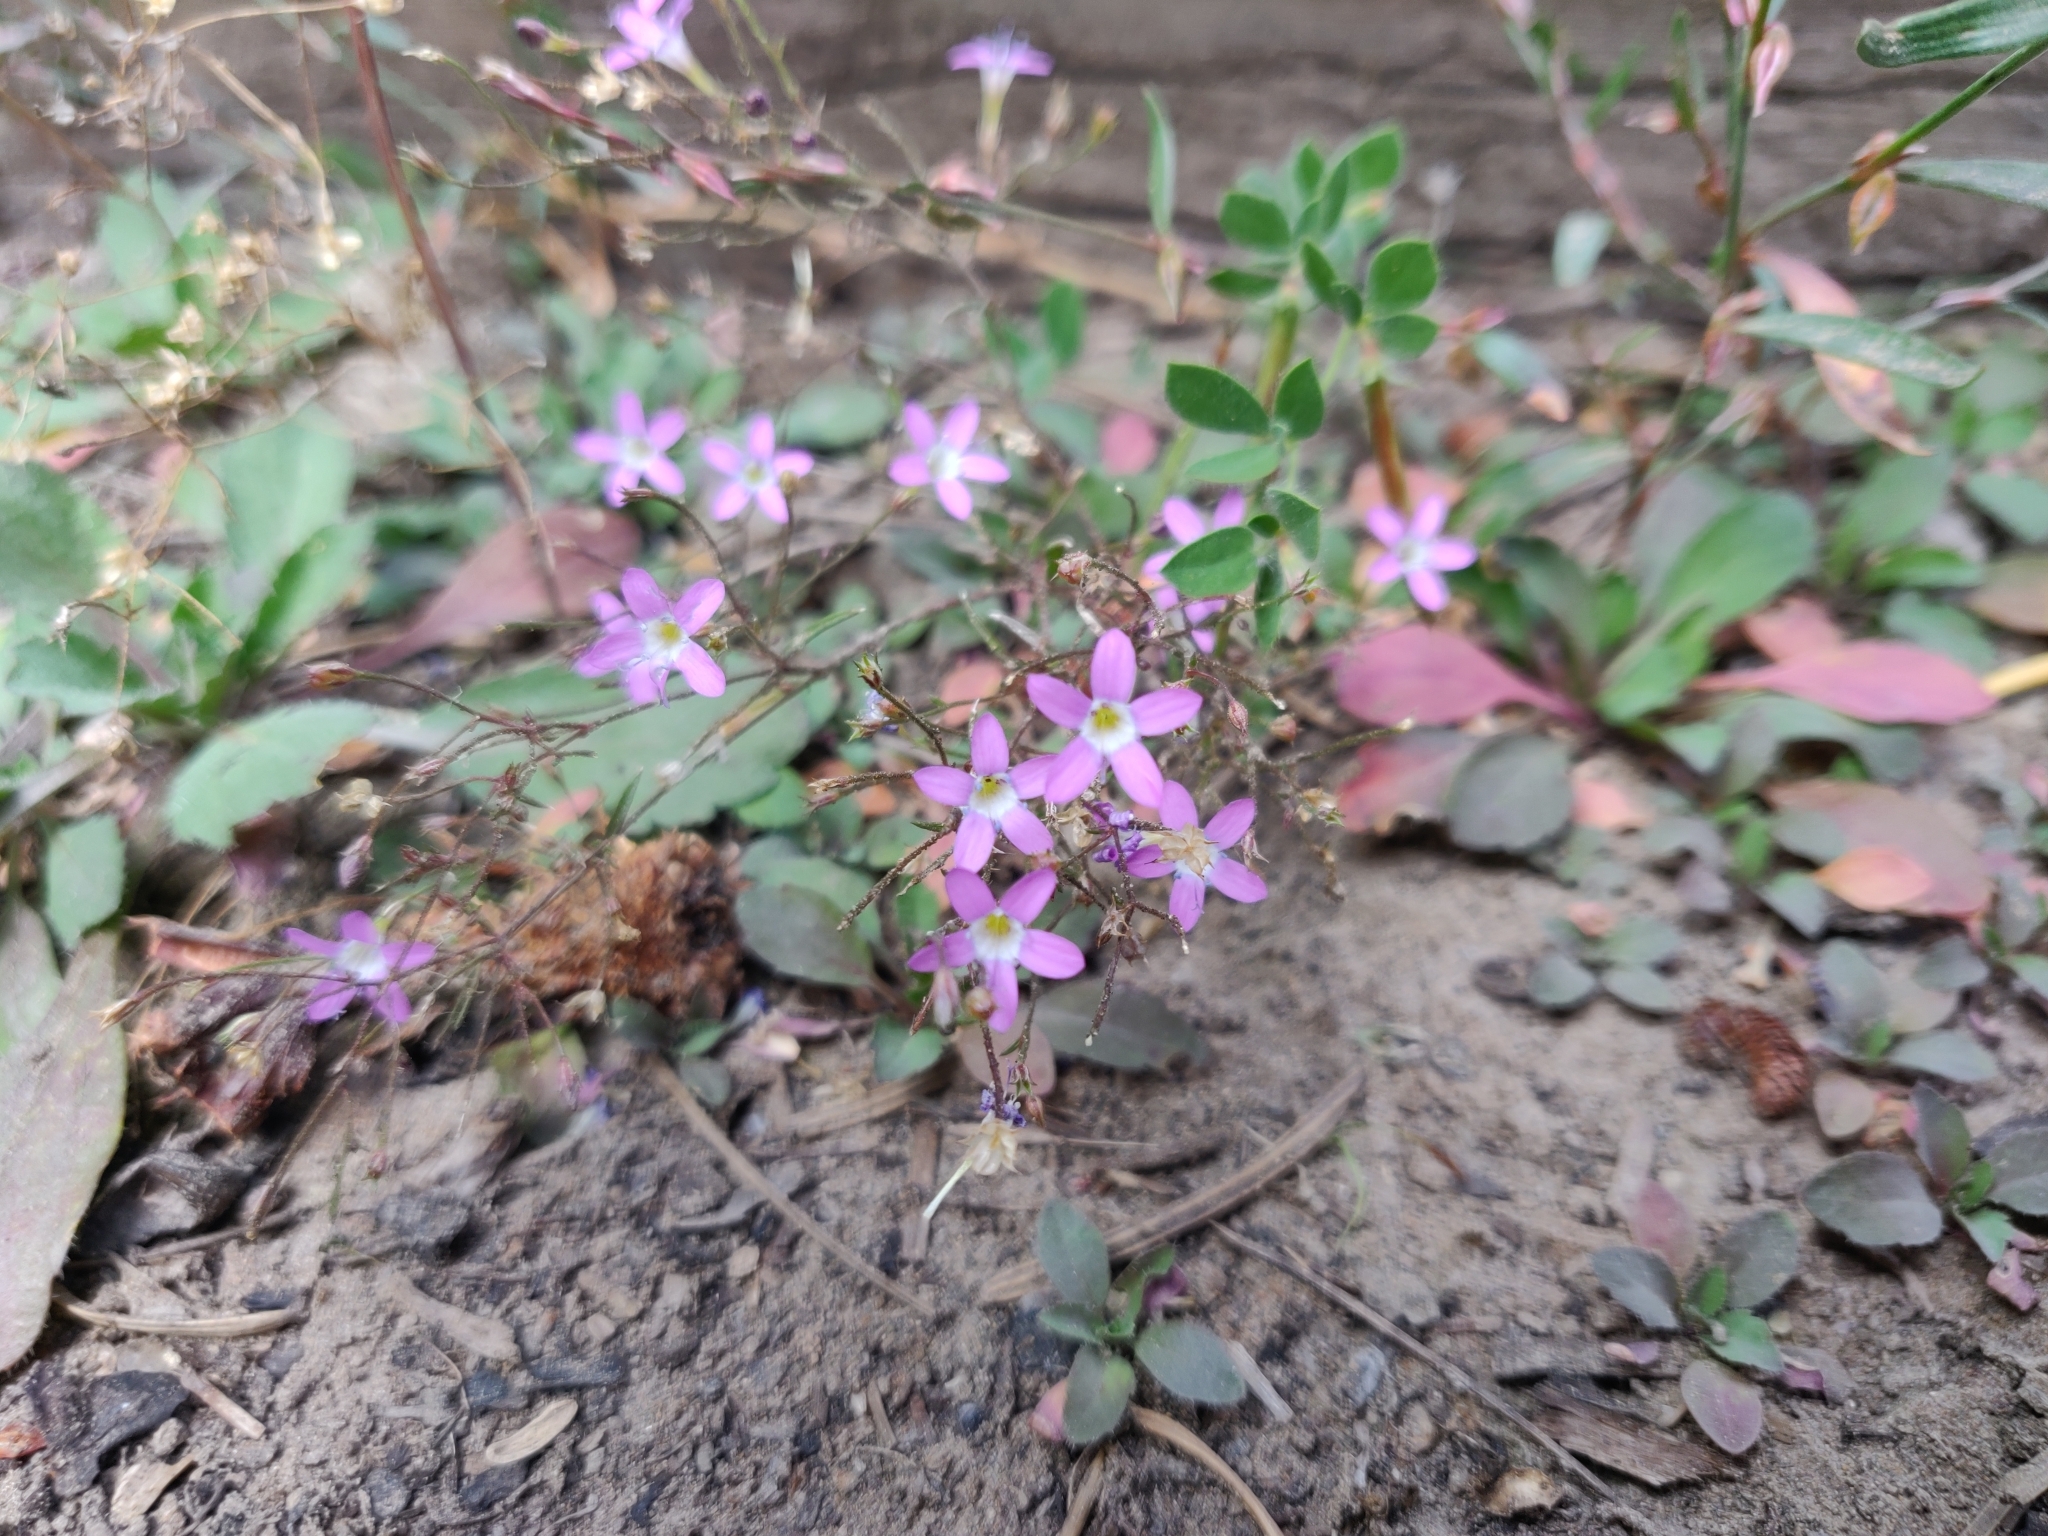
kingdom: Plantae
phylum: Tracheophyta
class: Magnoliopsida
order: Ericales
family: Polemoniaceae
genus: Navarretia
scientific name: Navarretia leptalea
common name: Bridges' pincushionplant
